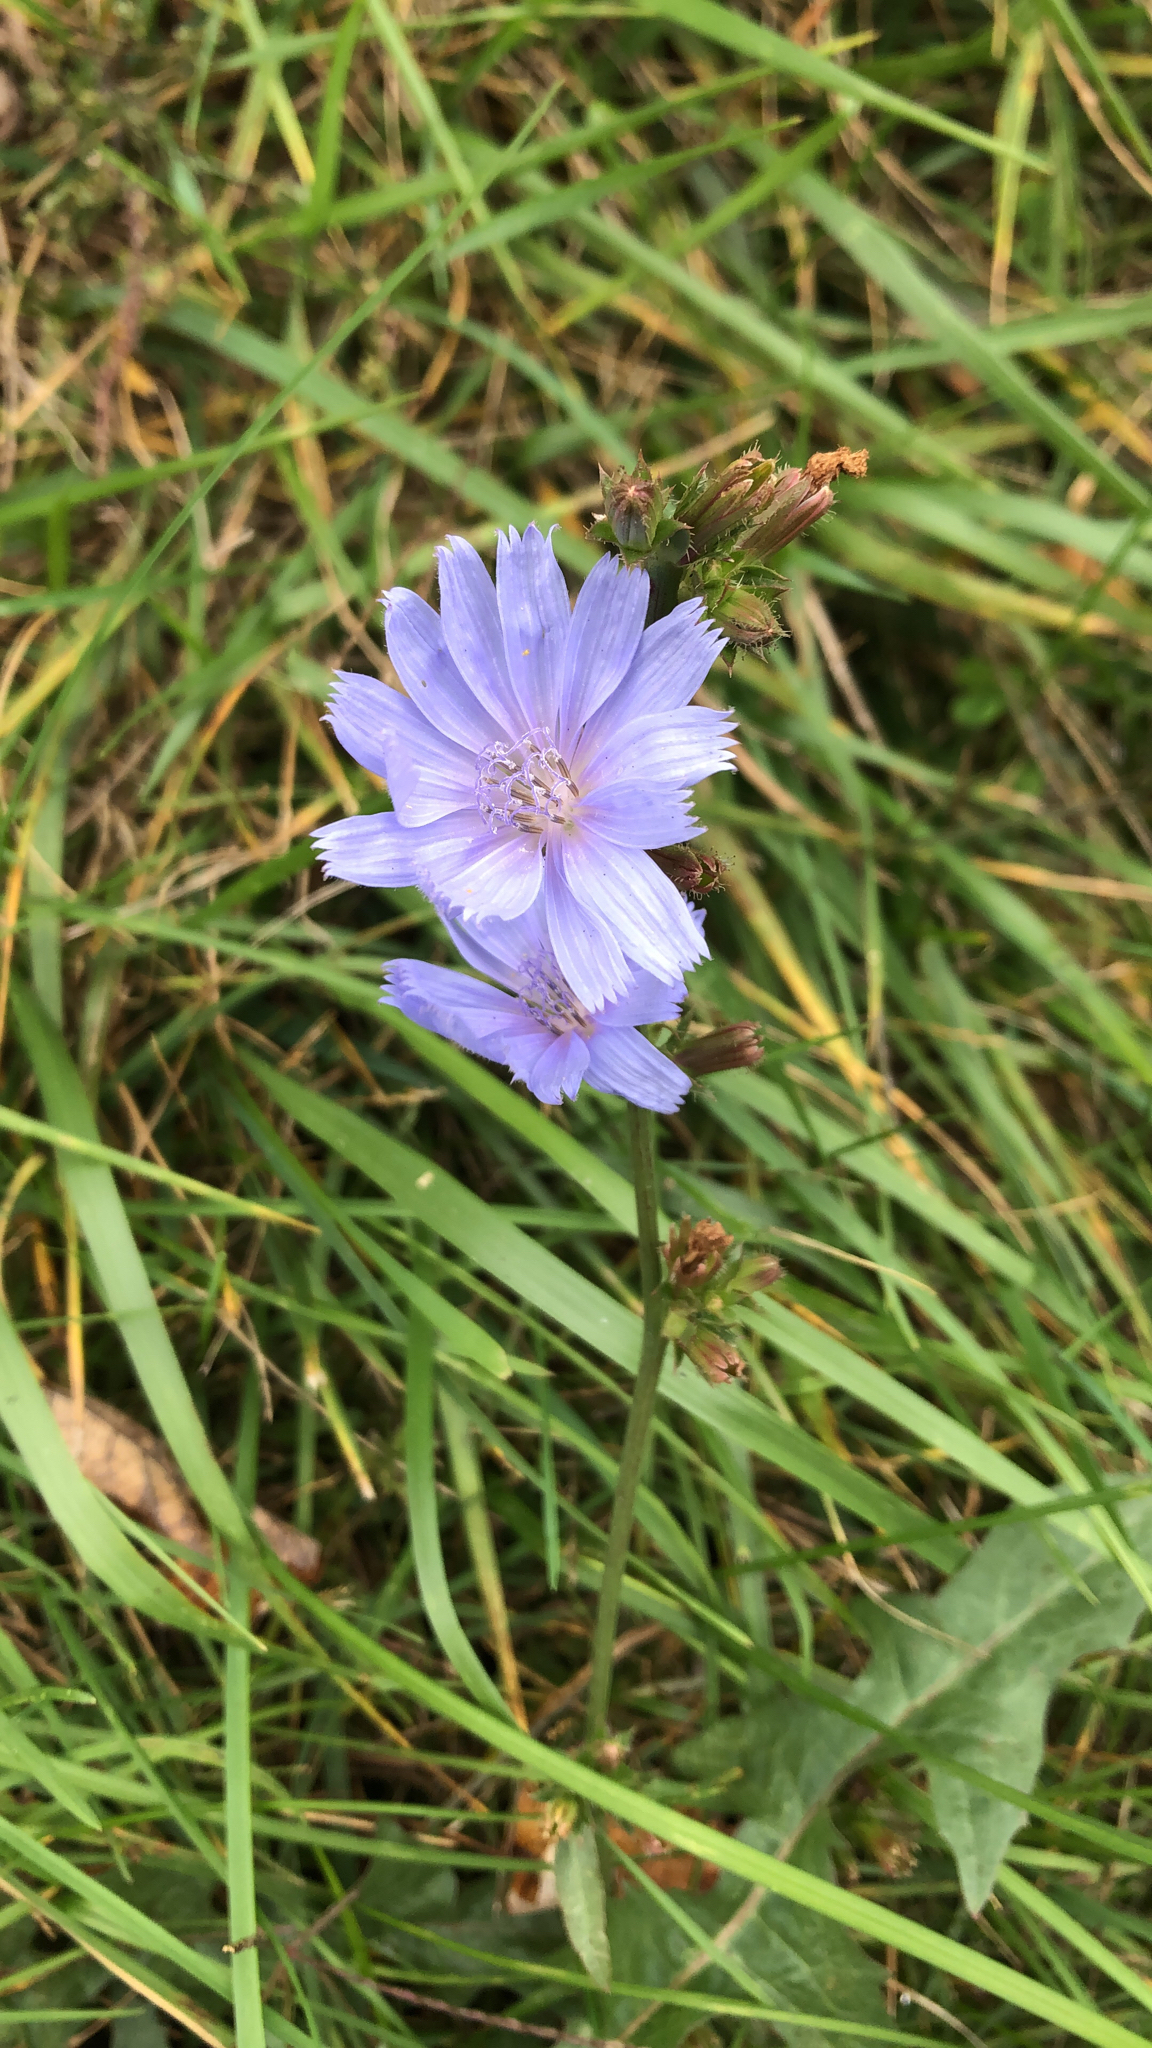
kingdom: Plantae
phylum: Tracheophyta
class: Magnoliopsida
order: Asterales
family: Asteraceae
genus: Cichorium
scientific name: Cichorium intybus
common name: Chicory
